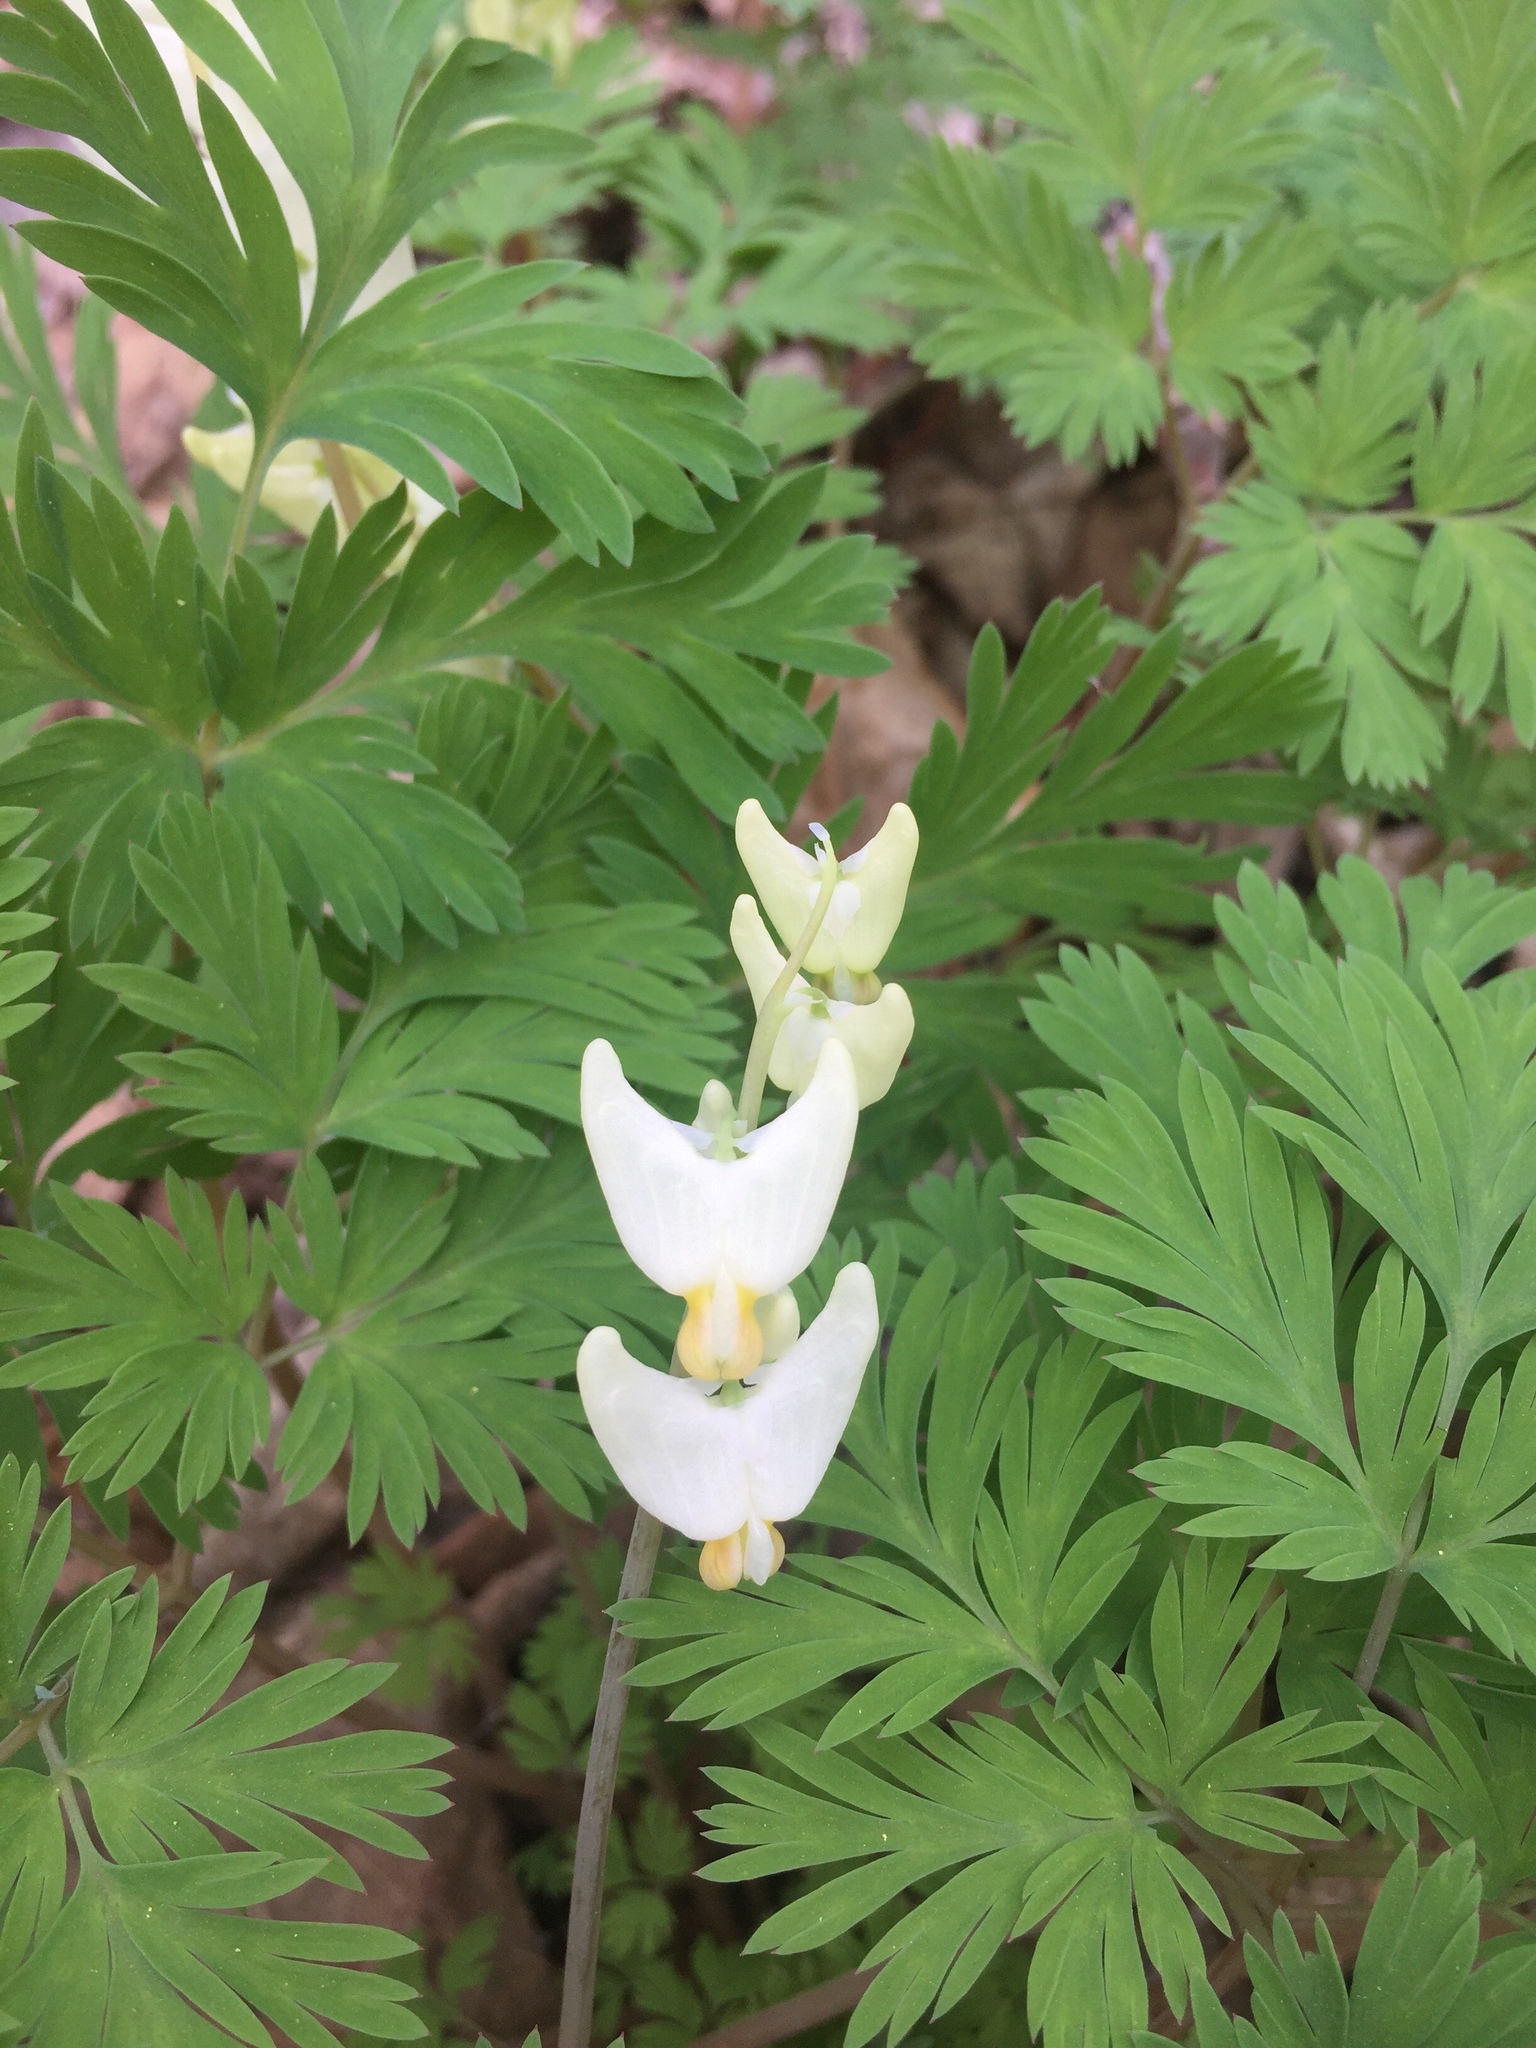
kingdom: Plantae
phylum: Tracheophyta
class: Magnoliopsida
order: Ranunculales
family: Papaveraceae
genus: Dicentra
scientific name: Dicentra cucullaria
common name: Dutchman's breeches
